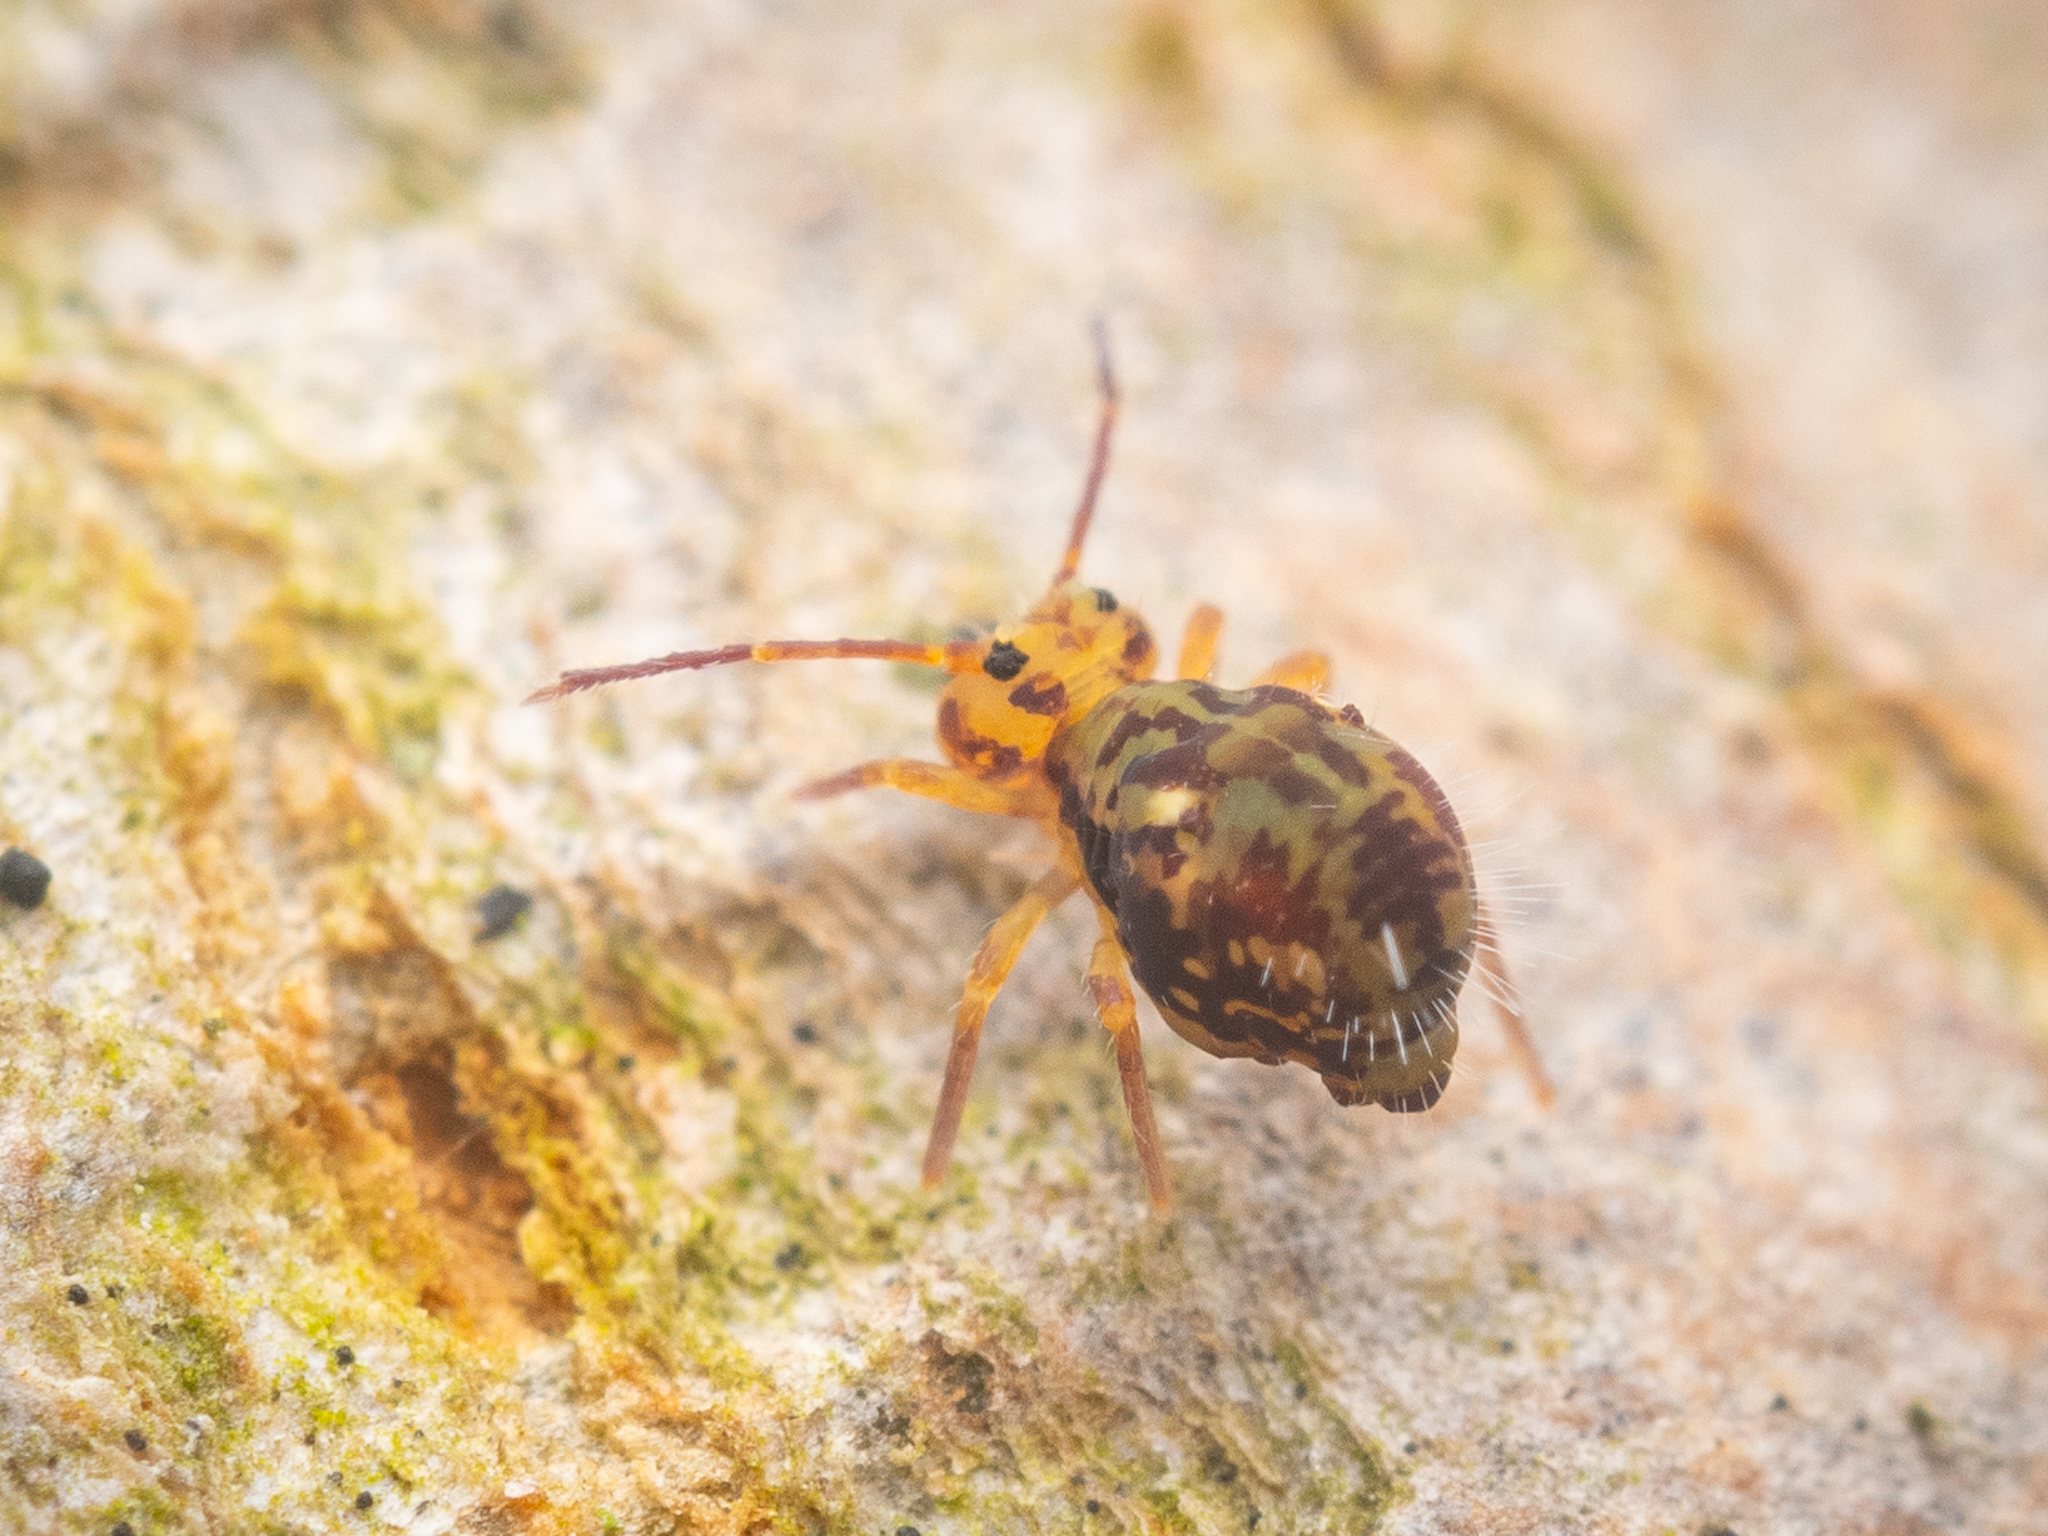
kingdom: Animalia
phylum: Arthropoda
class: Collembola
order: Symphypleona
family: Dicyrtomidae
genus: Dicyrtomina
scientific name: Dicyrtomina saundersi
